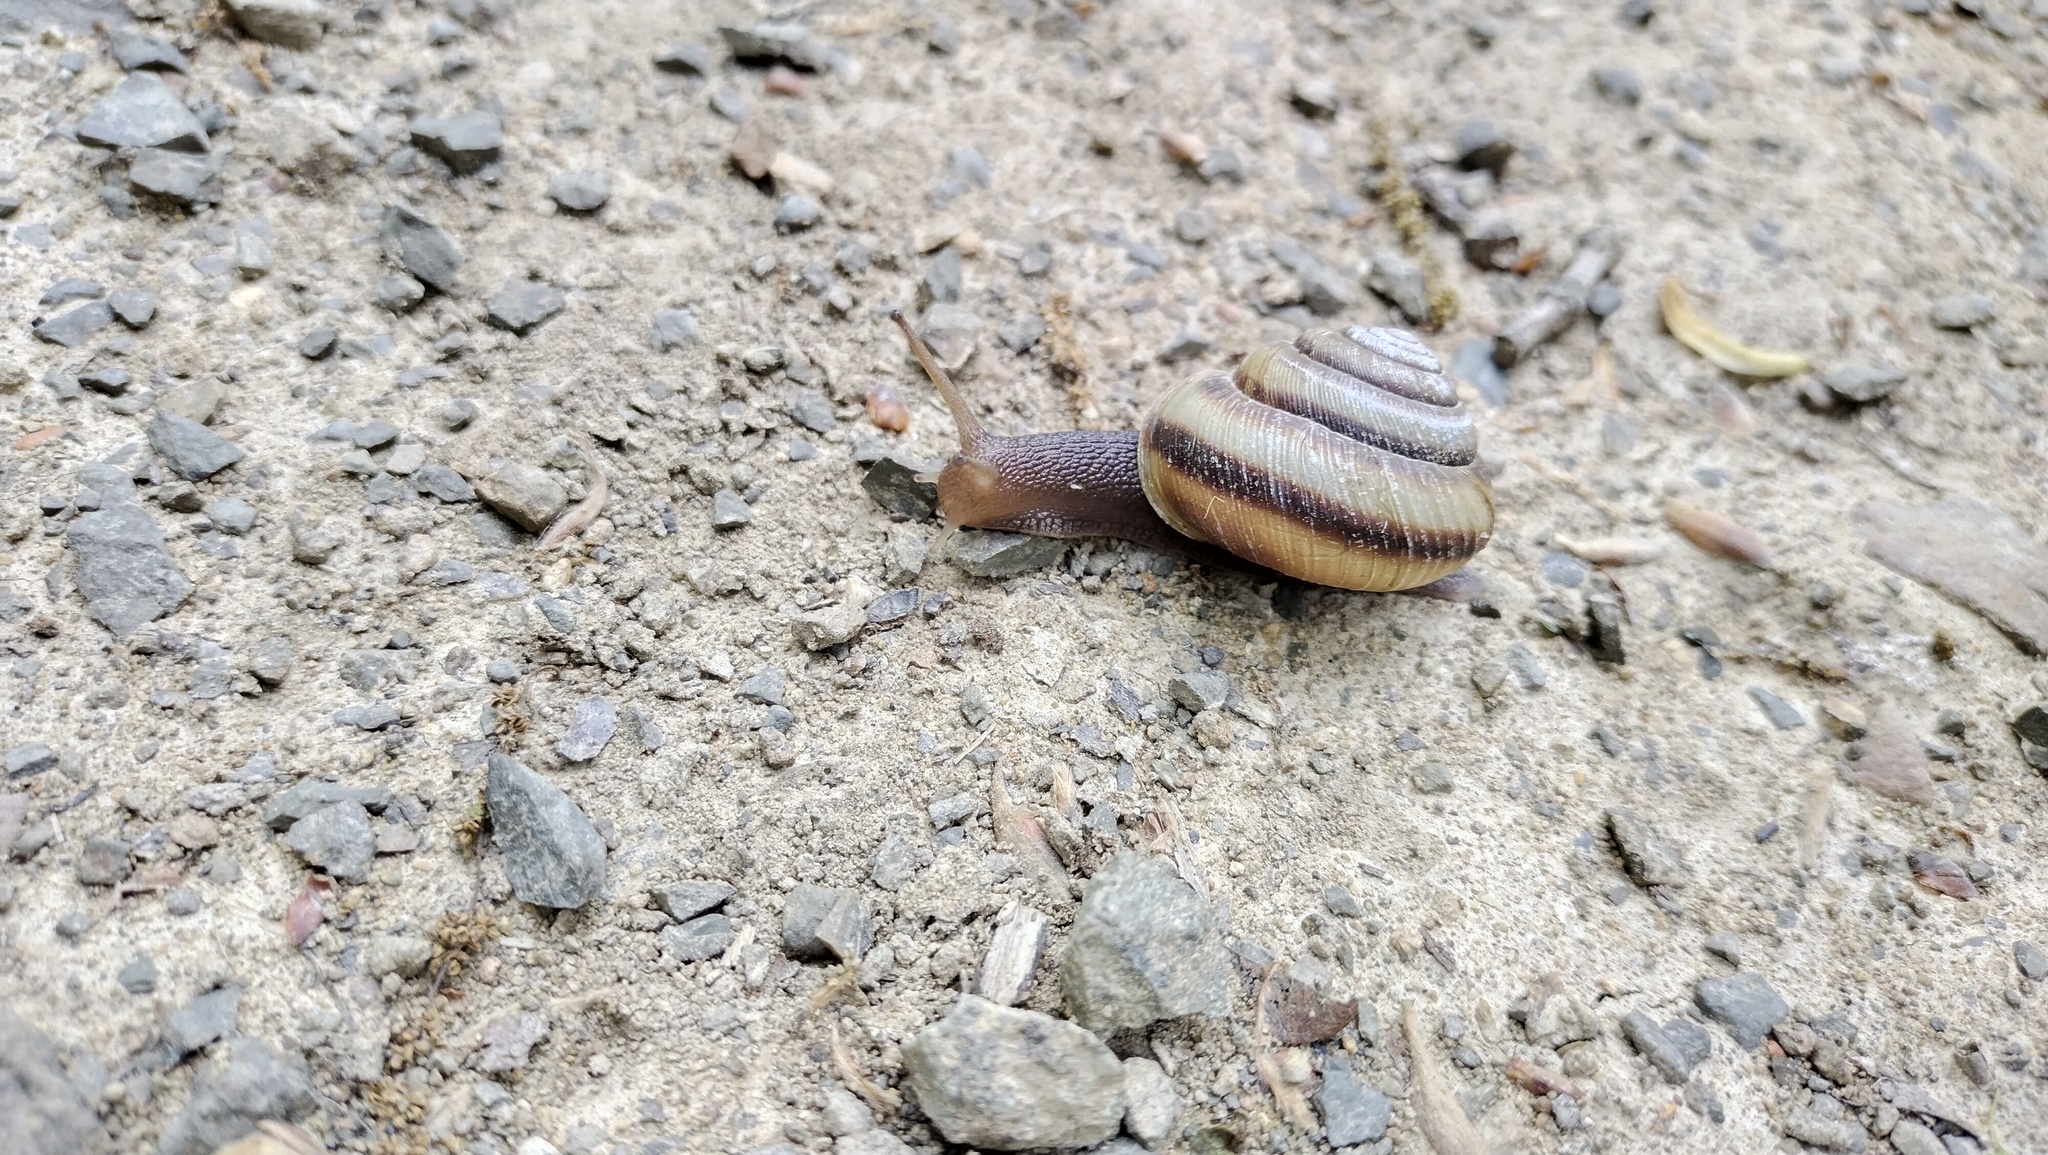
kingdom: Animalia
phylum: Mollusca
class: Gastropoda
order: Stylommatophora
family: Camaenidae
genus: Karaftohelix
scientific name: Karaftohelix maackii
